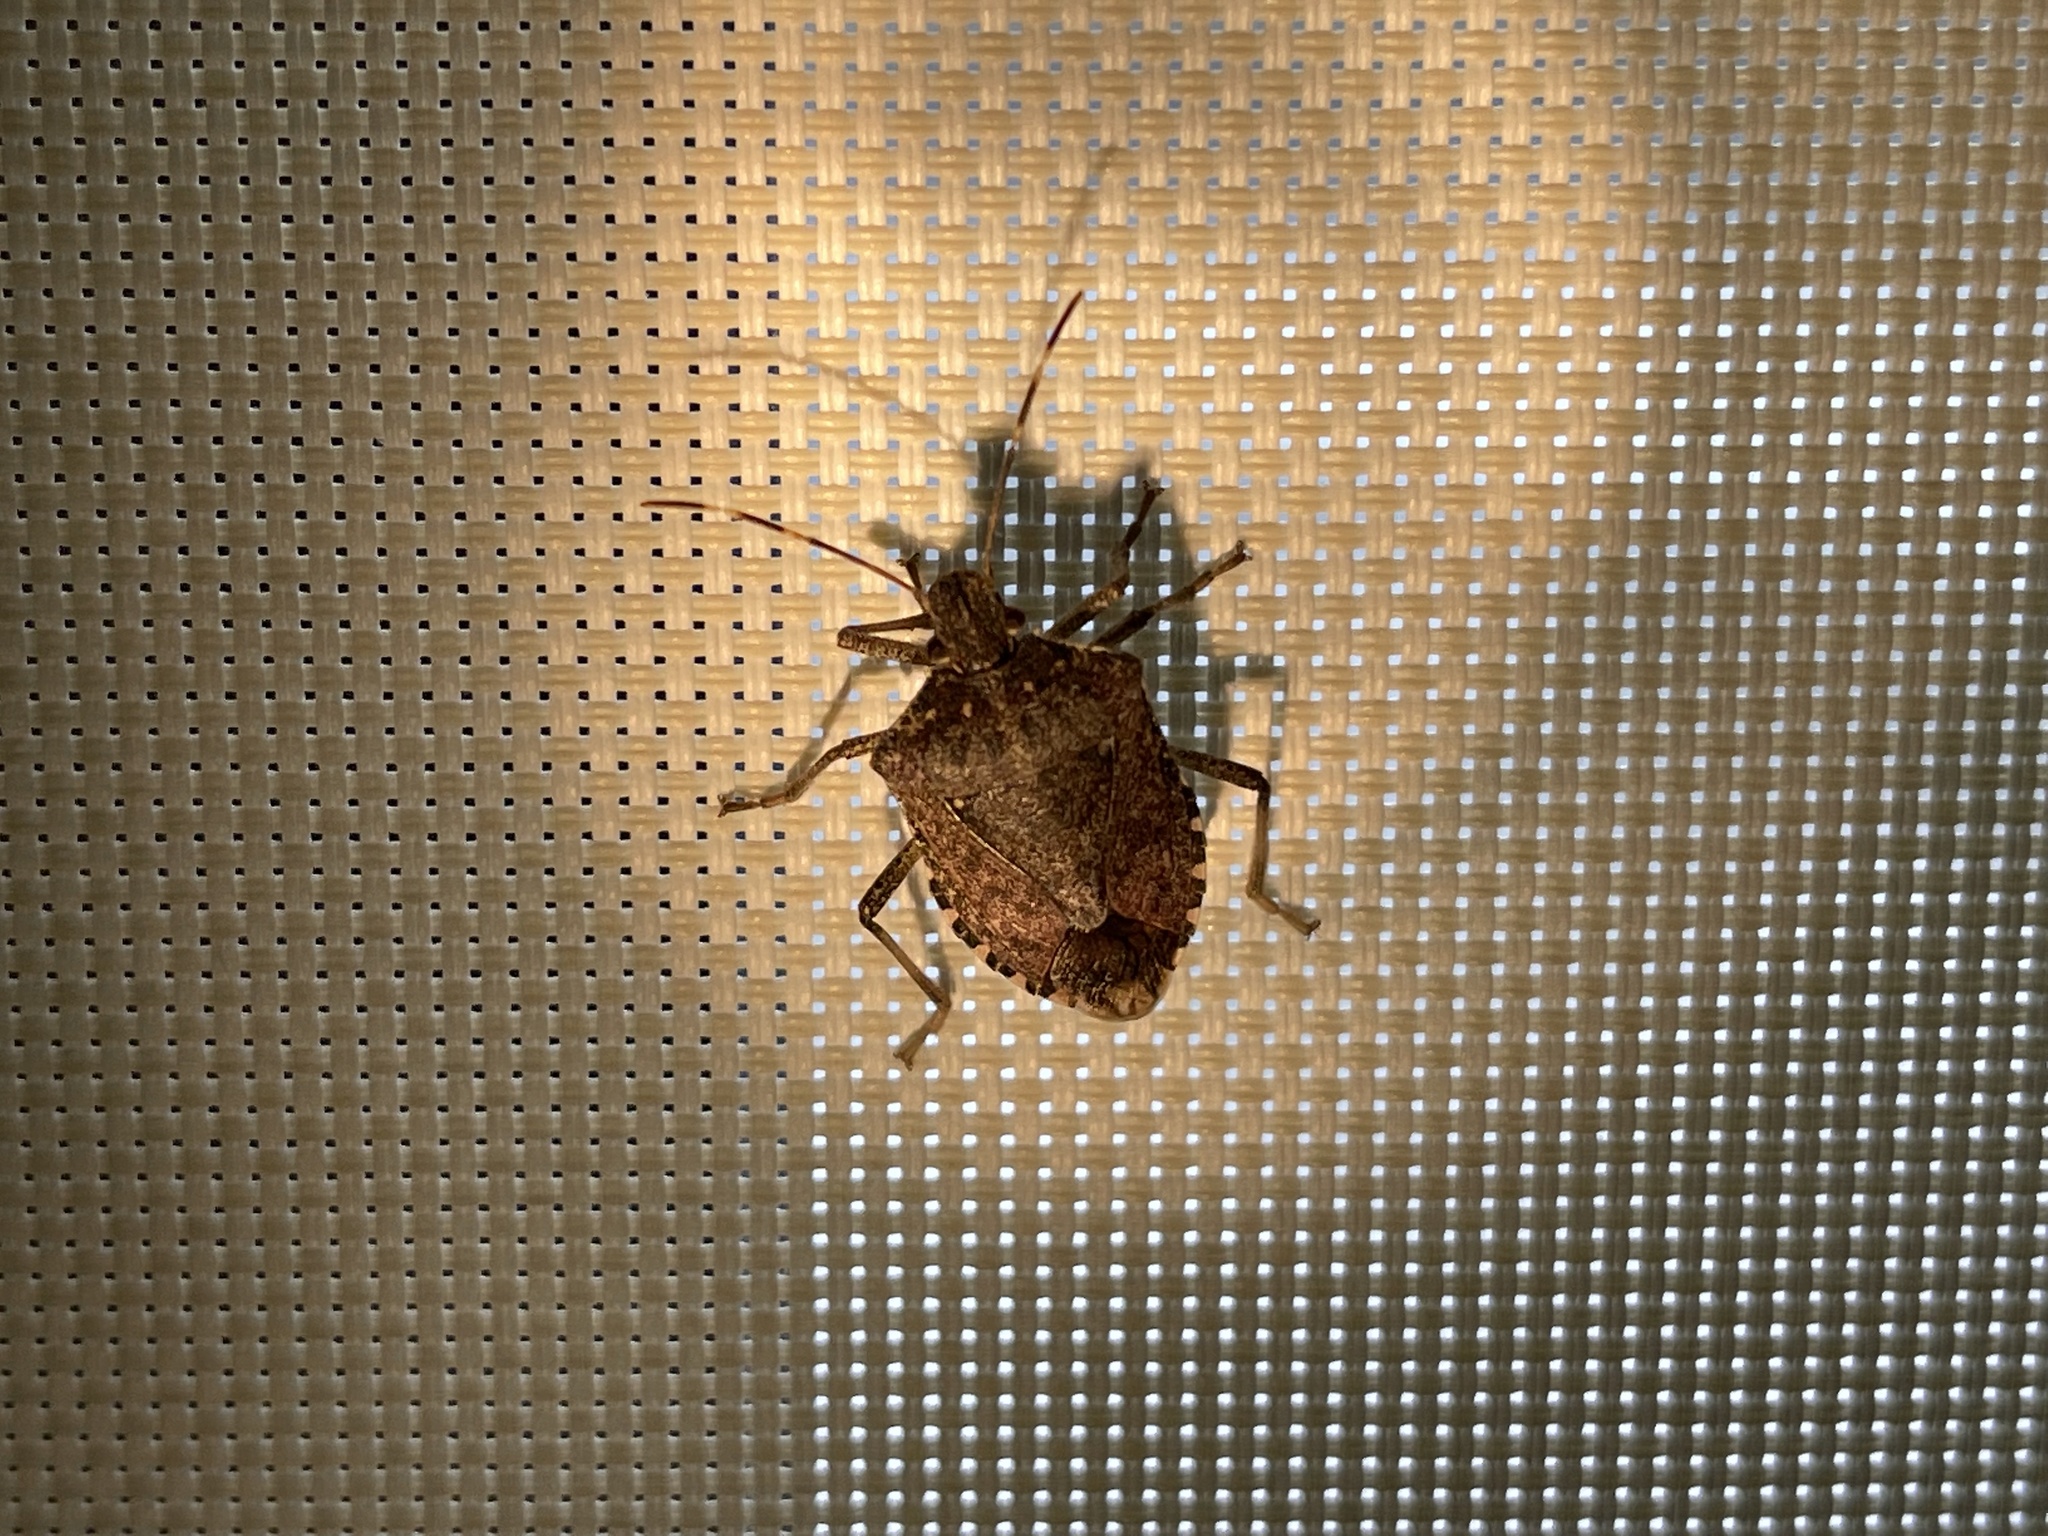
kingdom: Animalia
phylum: Arthropoda
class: Insecta
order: Hemiptera
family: Pentatomidae
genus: Halyomorpha
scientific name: Halyomorpha halys
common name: Brown marmorated stink bug
